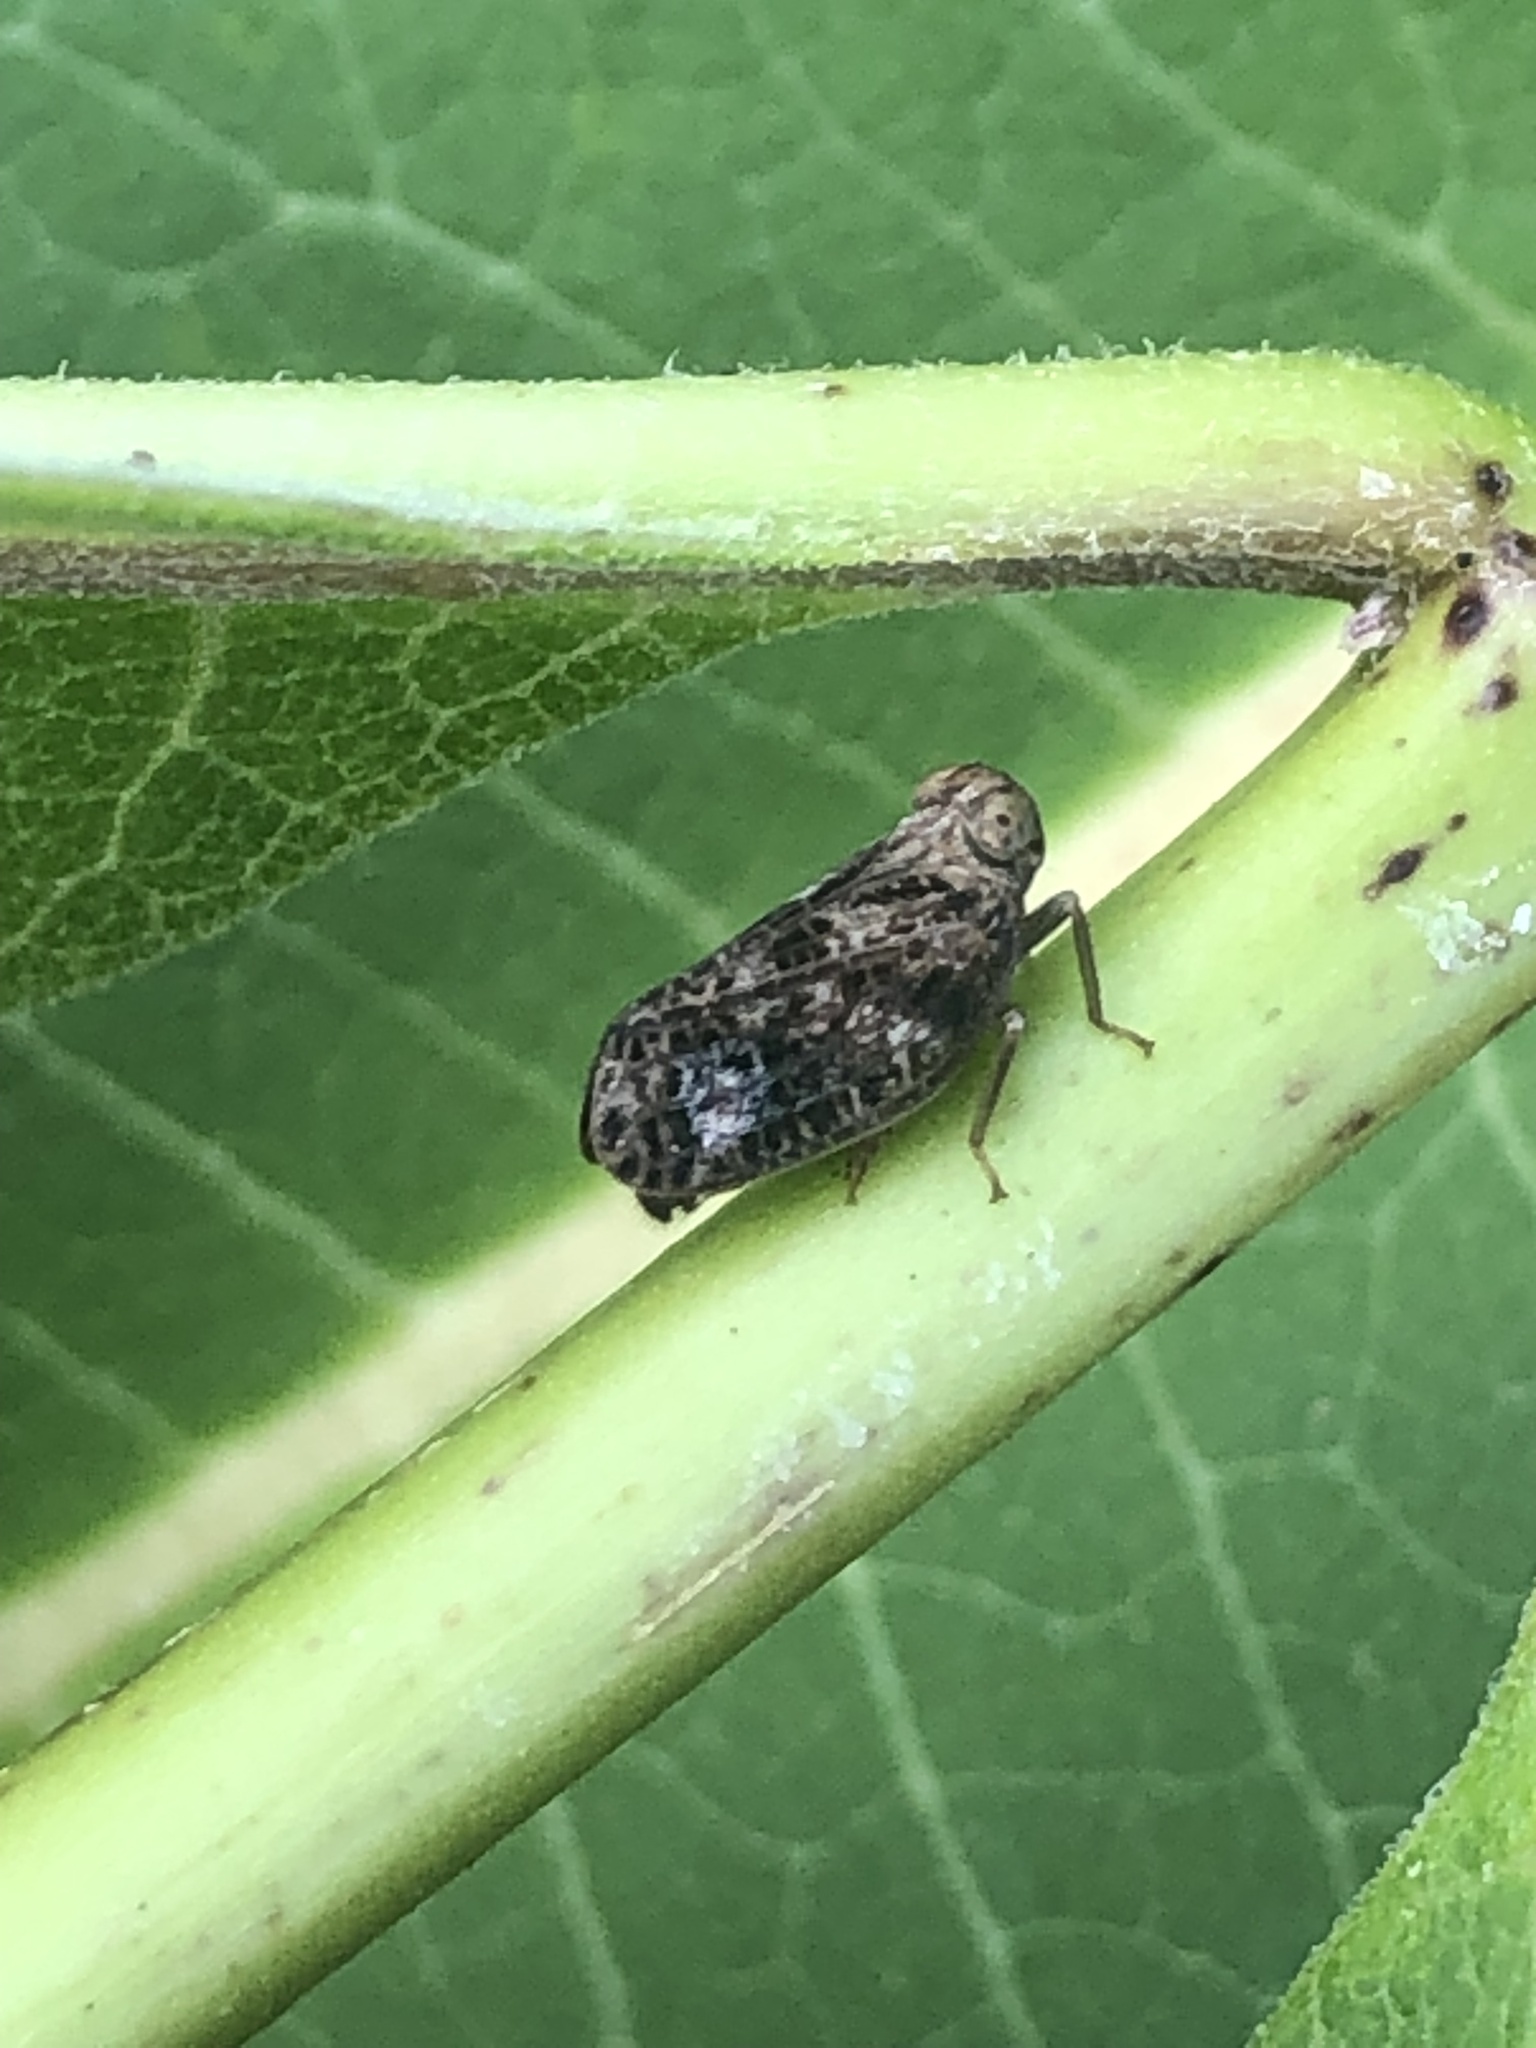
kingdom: Animalia
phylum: Arthropoda
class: Insecta
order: Hemiptera
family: Issidae
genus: Thionia
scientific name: Thionia bullata
